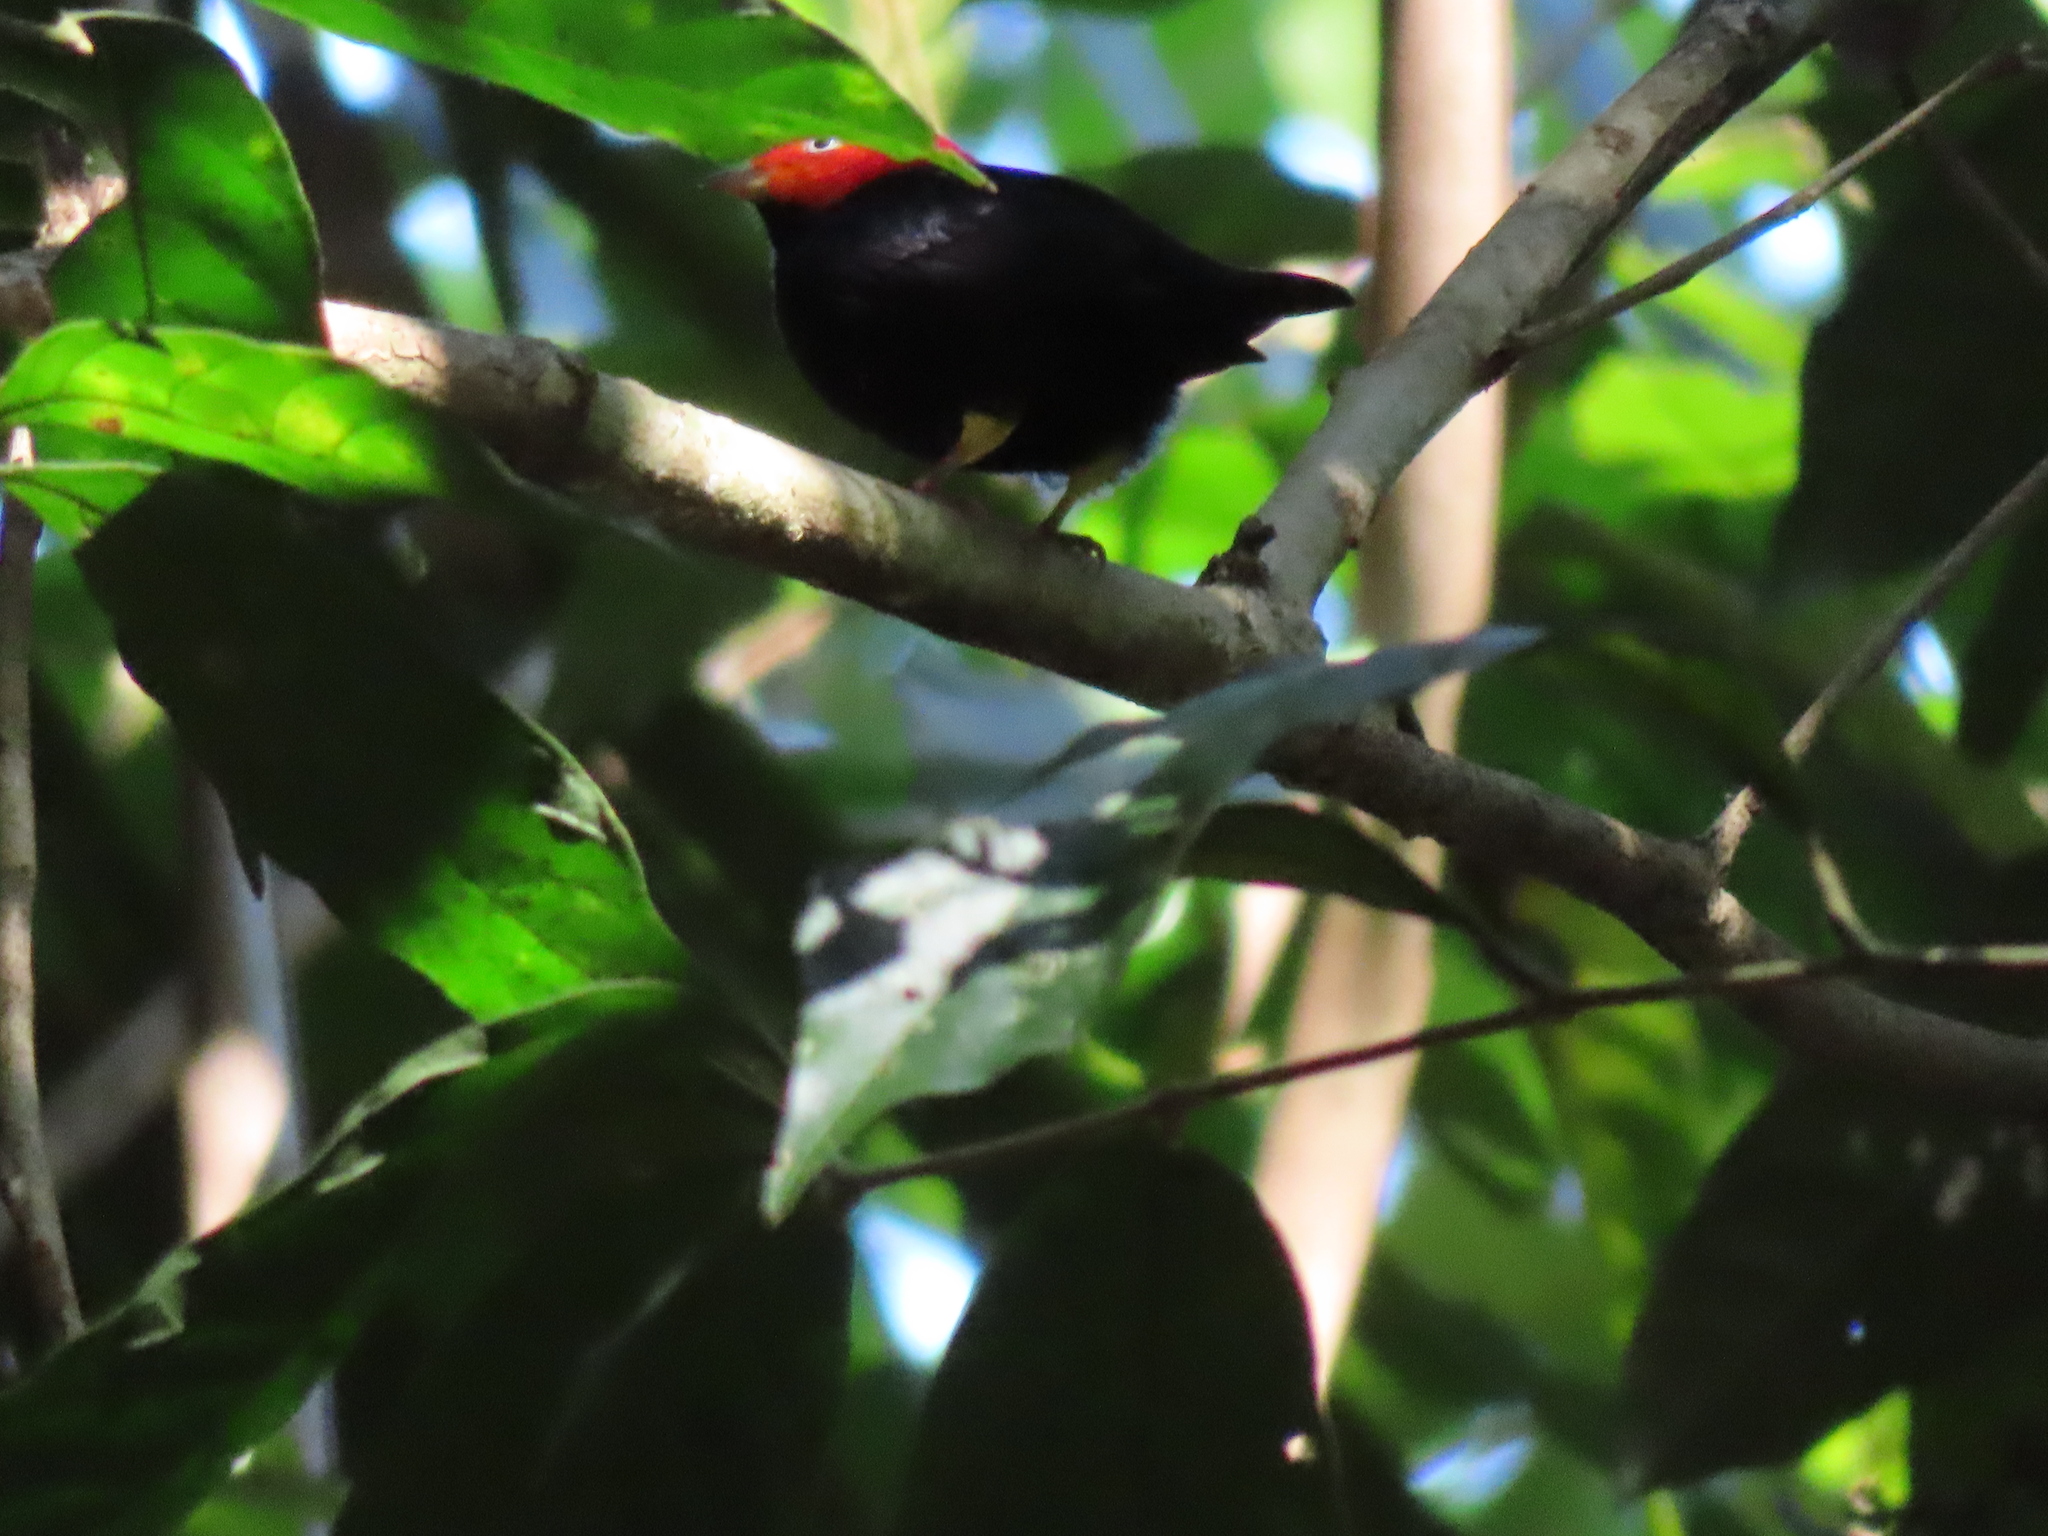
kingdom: Animalia
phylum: Chordata
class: Aves
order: Passeriformes
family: Pipridae
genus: Pipra
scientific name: Pipra mentalis
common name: Red-capped manakin
